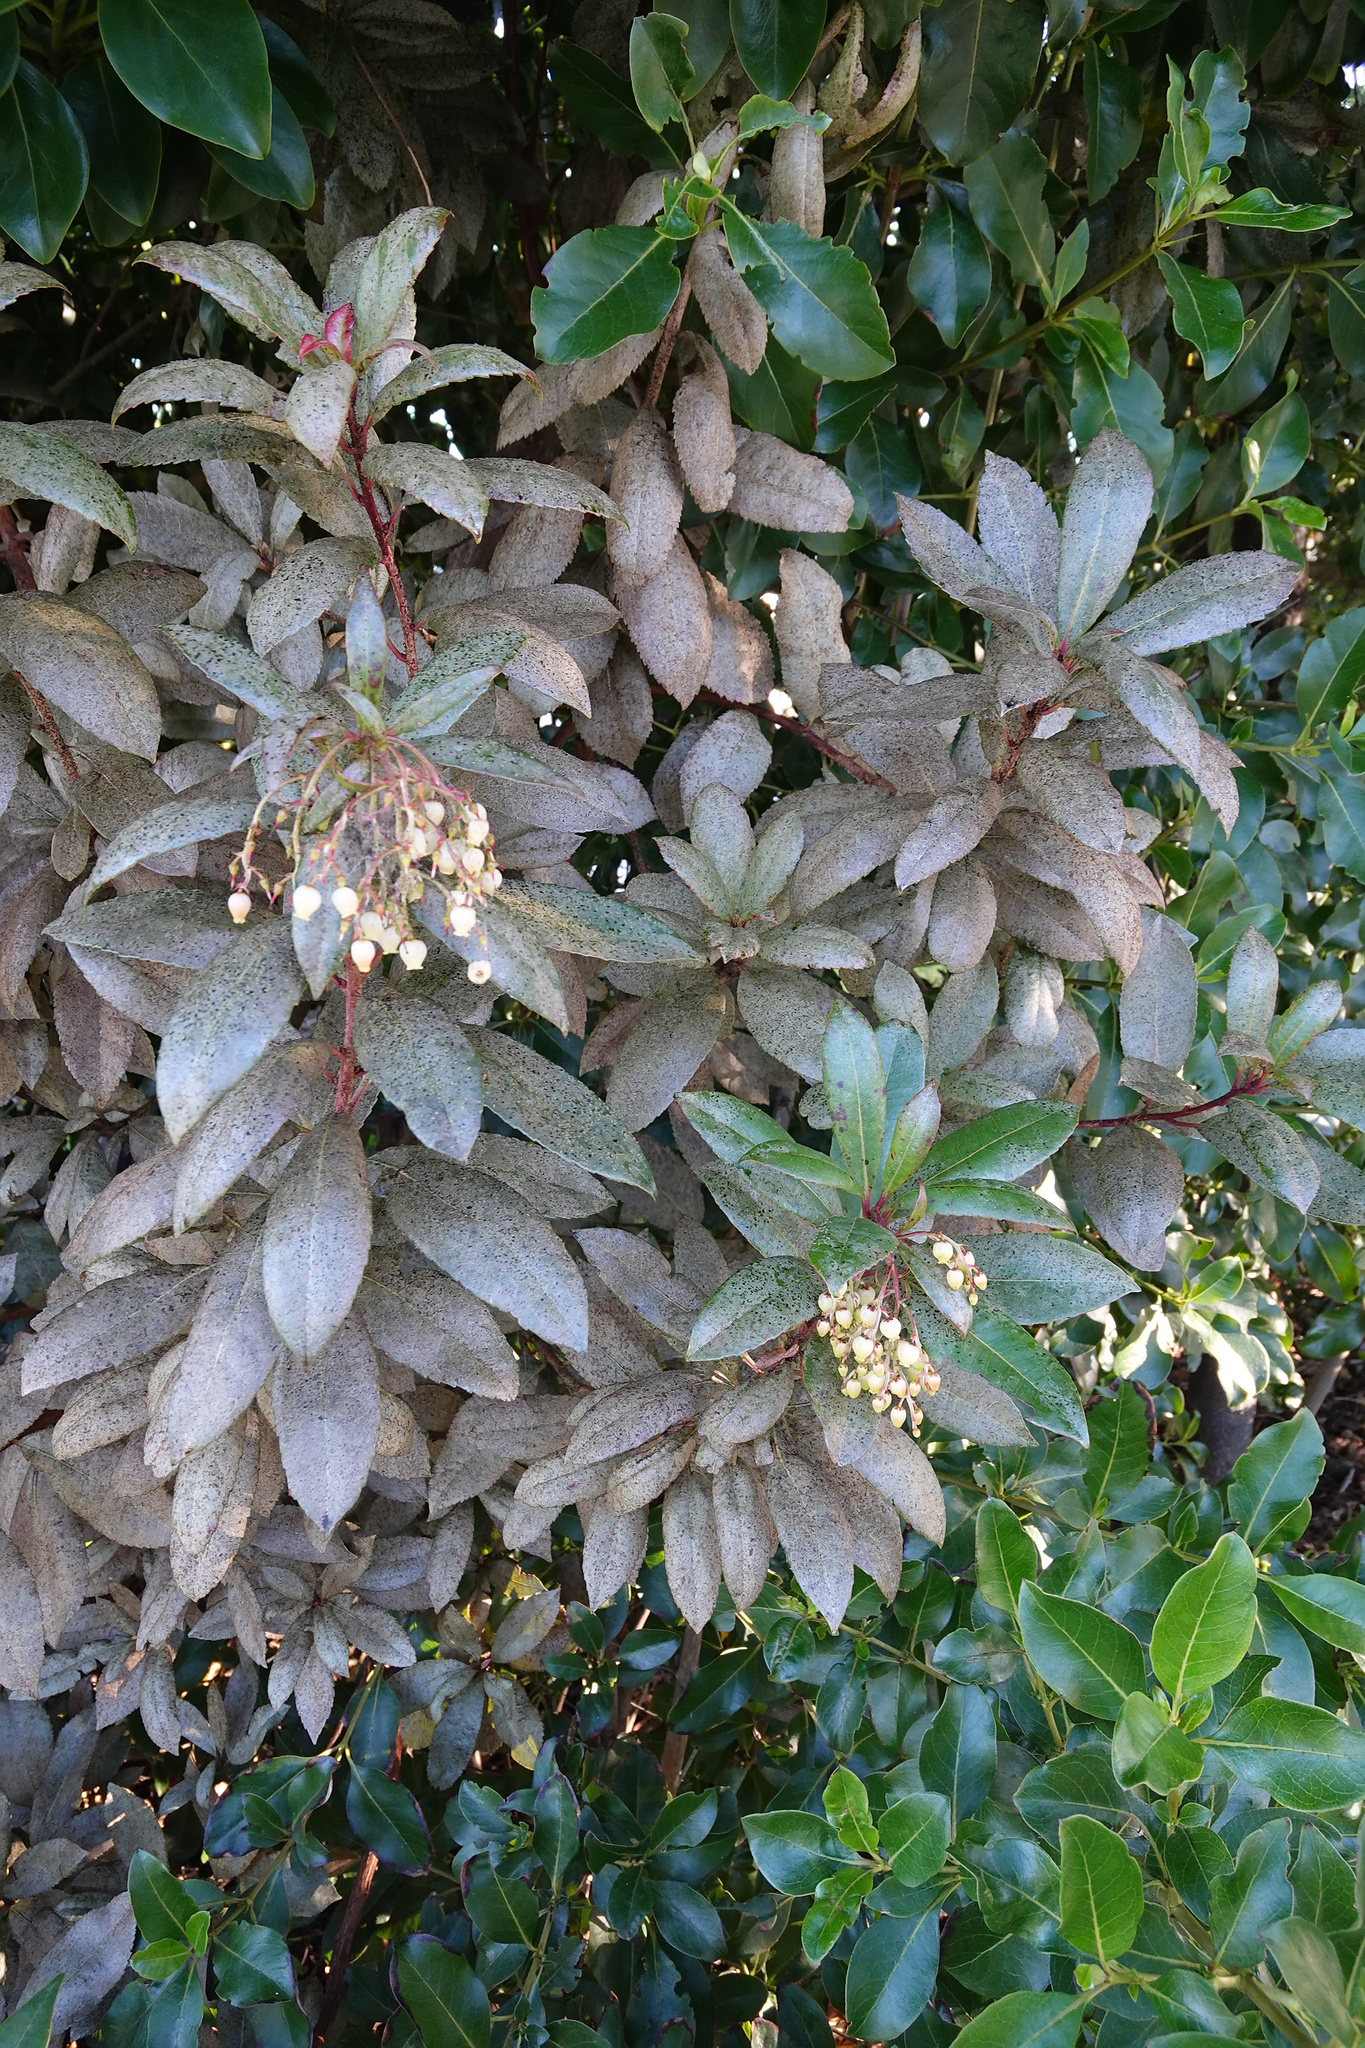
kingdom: Plantae
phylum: Tracheophyta
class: Magnoliopsida
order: Ericales
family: Ericaceae
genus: Arbutus
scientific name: Arbutus unedo
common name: Strawberry-tree
